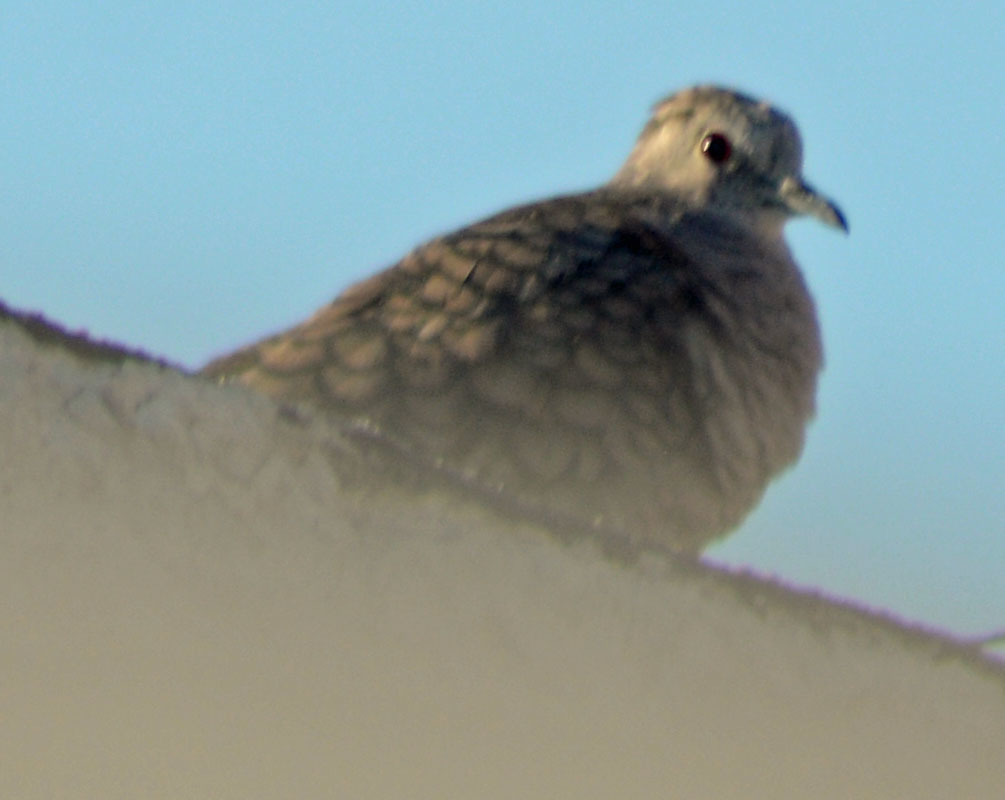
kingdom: Animalia
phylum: Chordata
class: Aves
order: Columbiformes
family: Columbidae
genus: Columbina
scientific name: Columbina inca
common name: Inca dove
